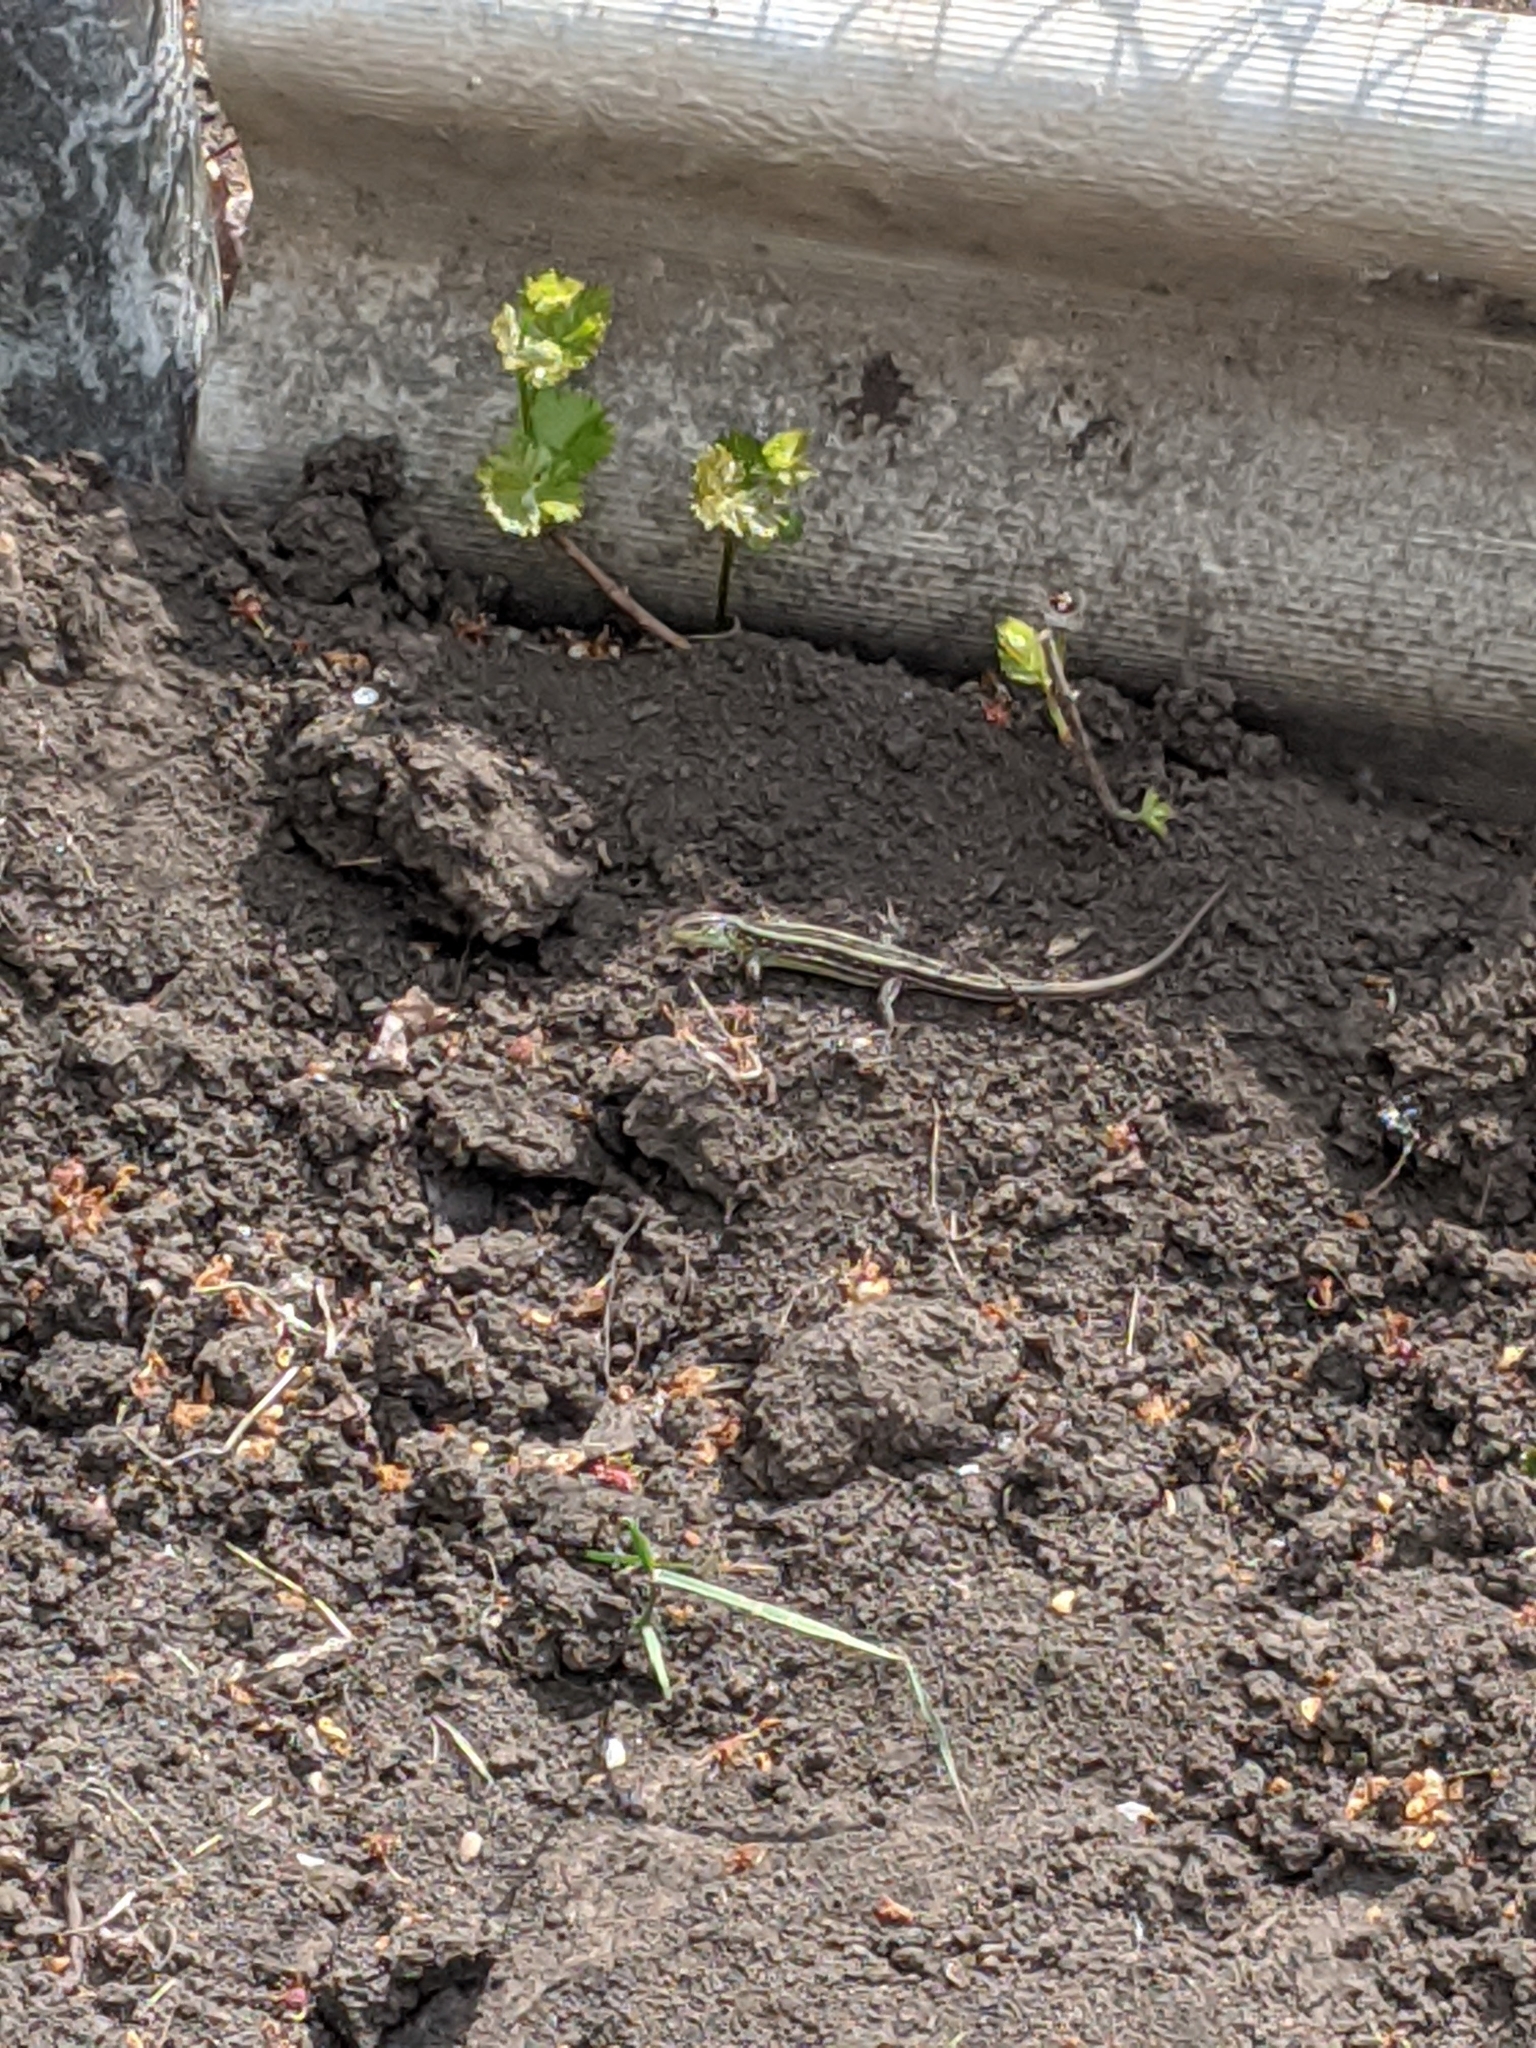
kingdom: Animalia
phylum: Chordata
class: Squamata
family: Lacertidae
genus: Lacerta
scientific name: Lacerta agilis
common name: Sand lizard
